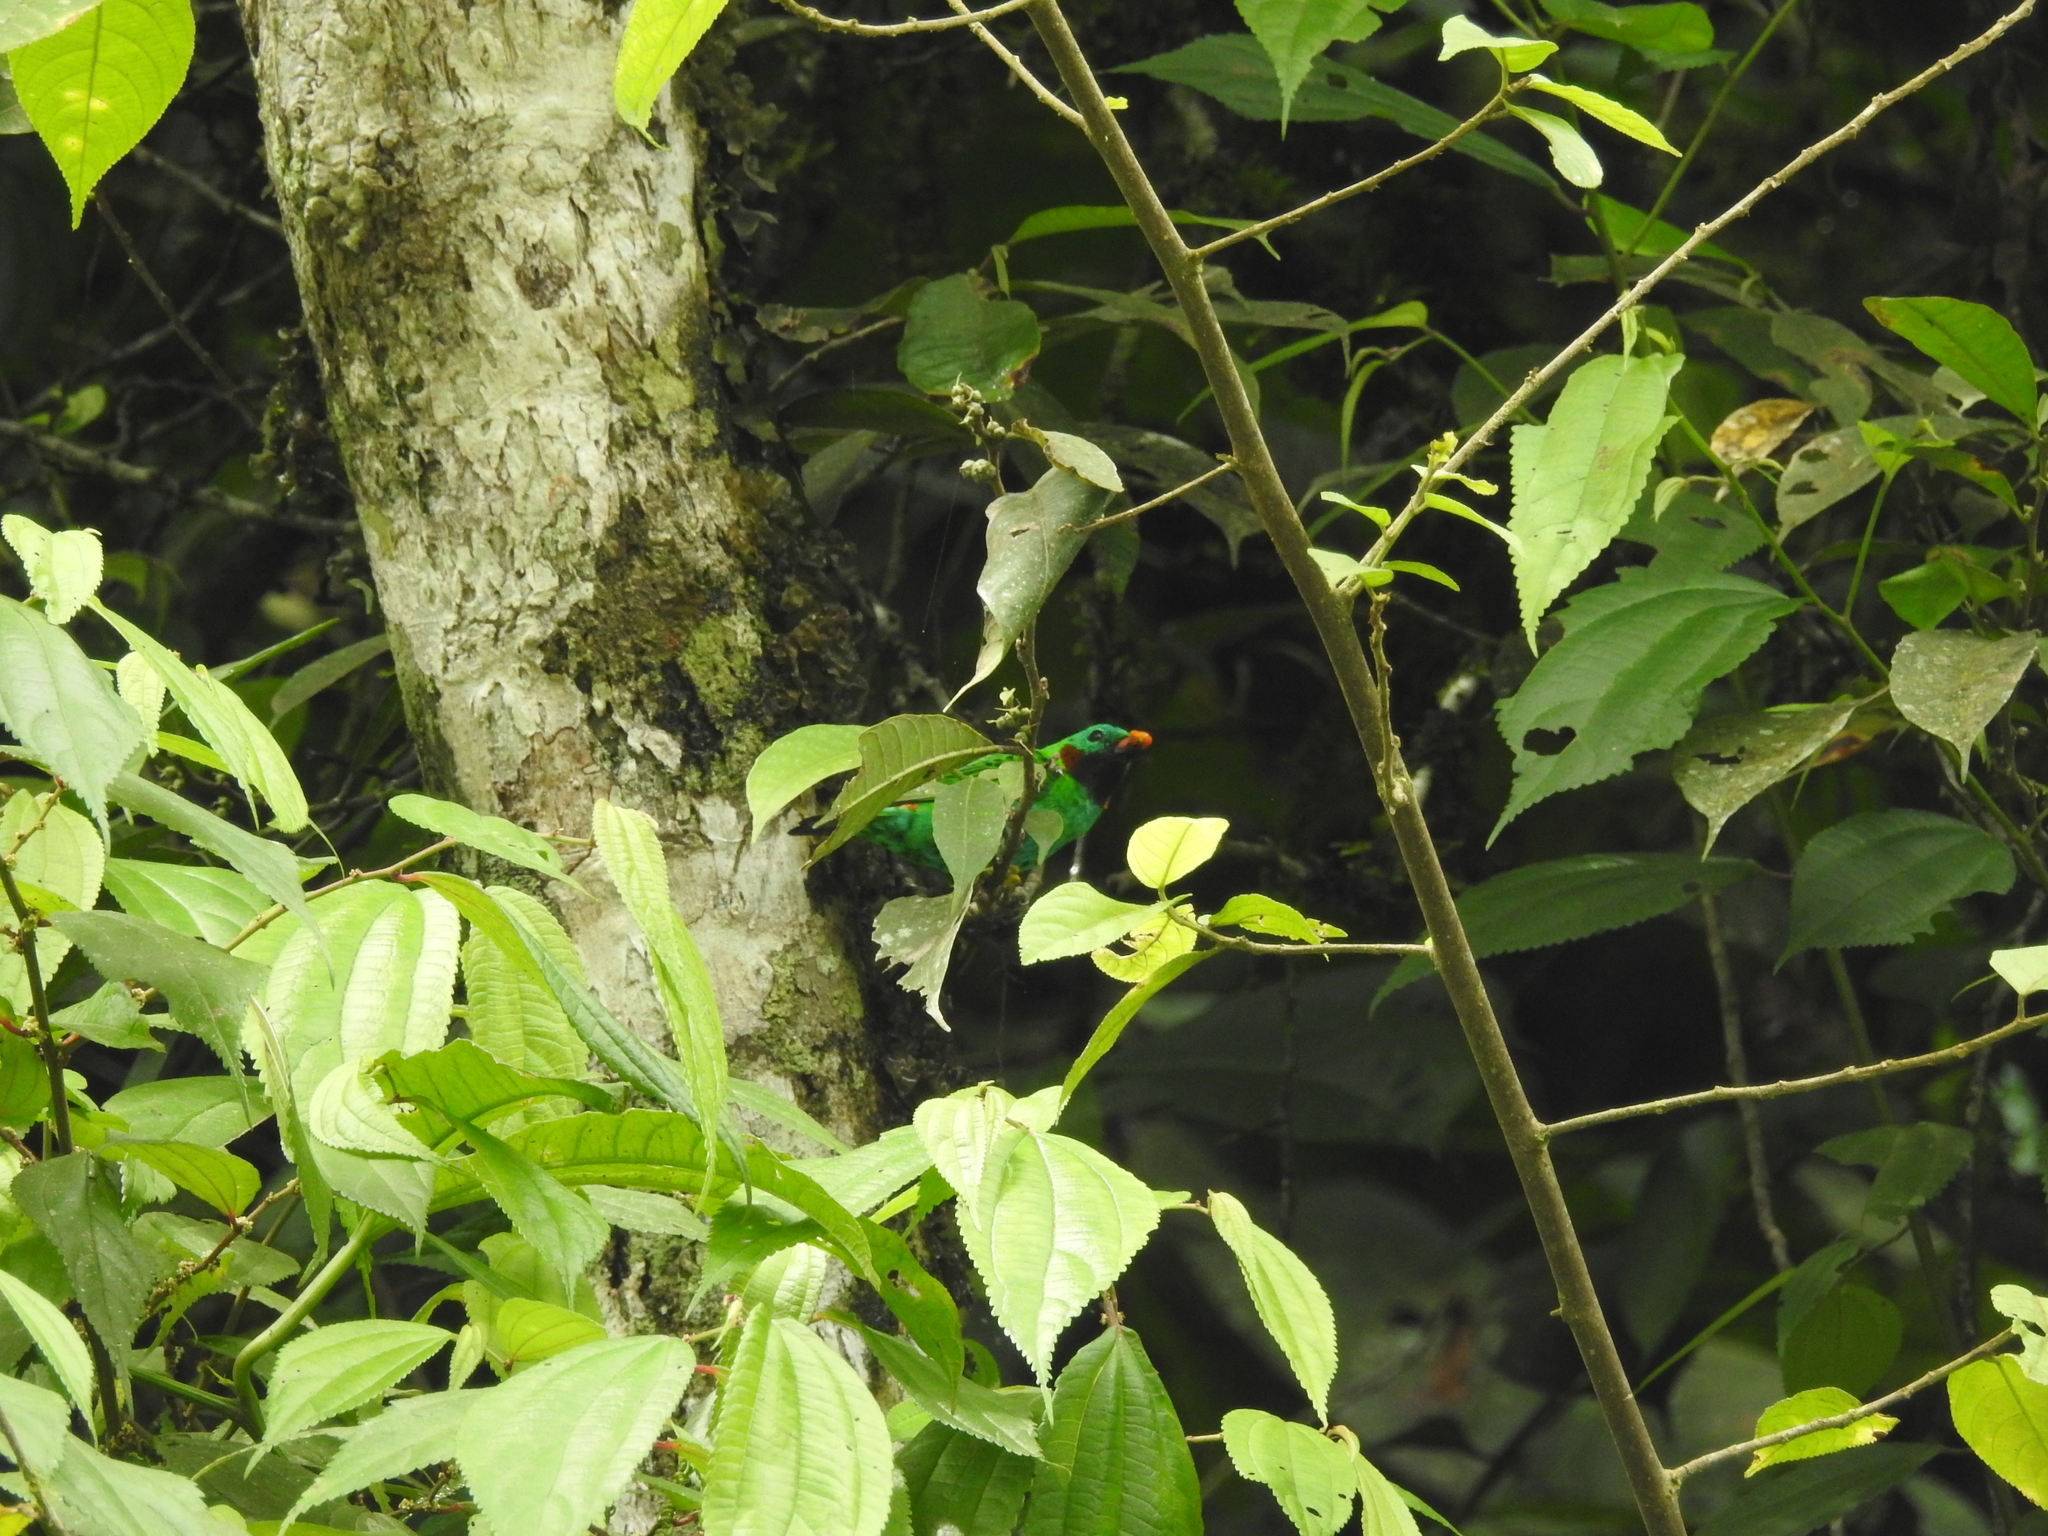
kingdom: Animalia
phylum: Chordata
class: Aves
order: Passeriformes
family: Thraupidae
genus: Chlorochrysa
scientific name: Chlorochrysa calliparaea
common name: Orange-eared tanager
